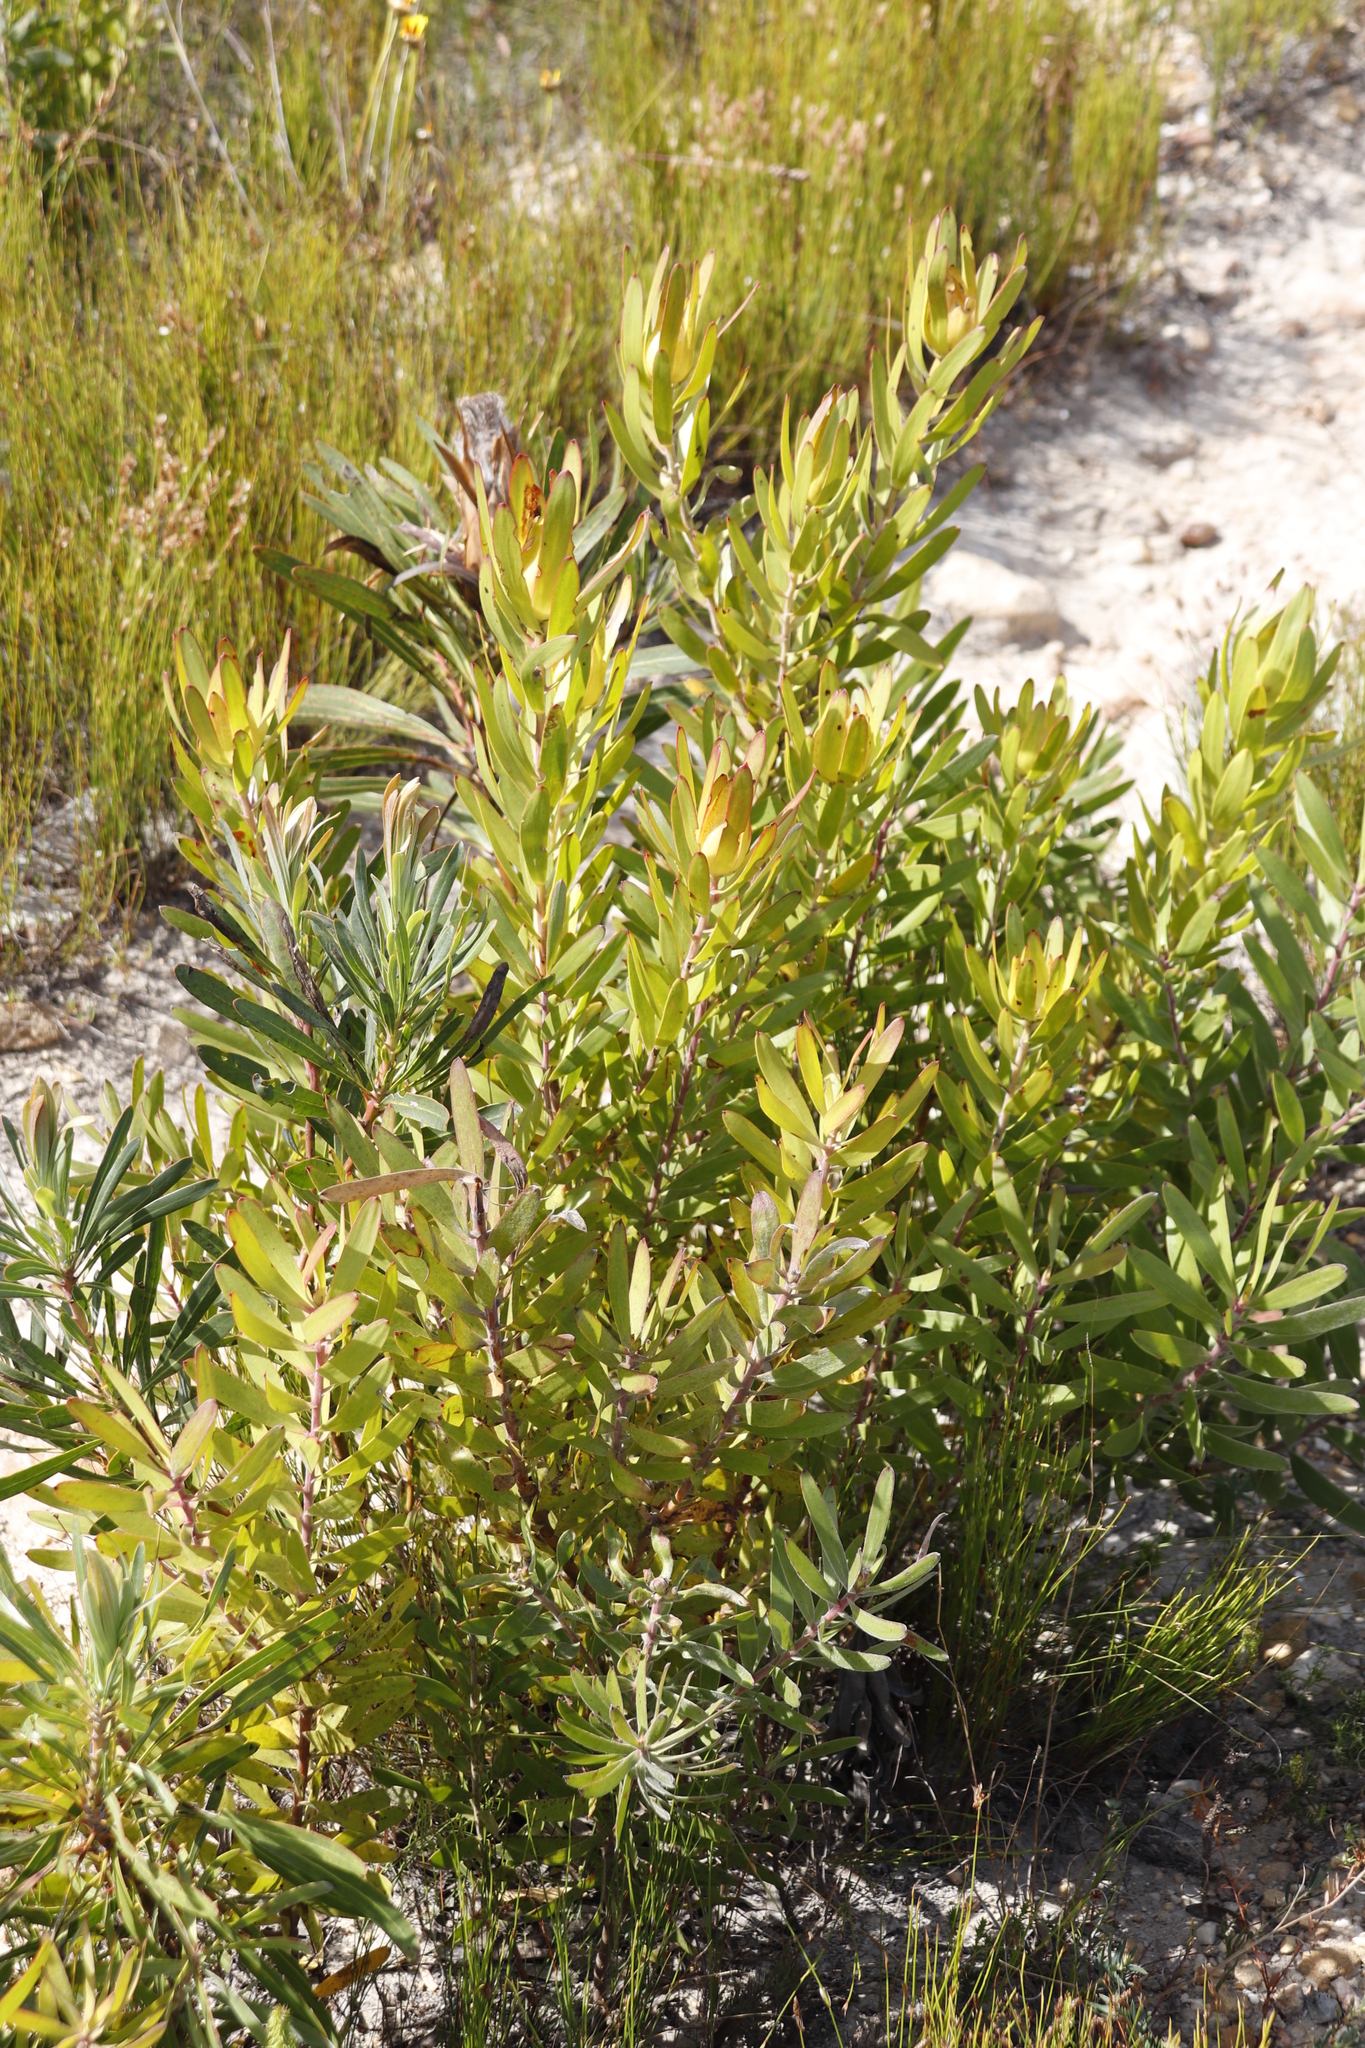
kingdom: Plantae
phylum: Tracheophyta
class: Magnoliopsida
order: Proteales
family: Proteaceae
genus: Leucadendron
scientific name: Leucadendron laureolum
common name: Golden sunshinebush
